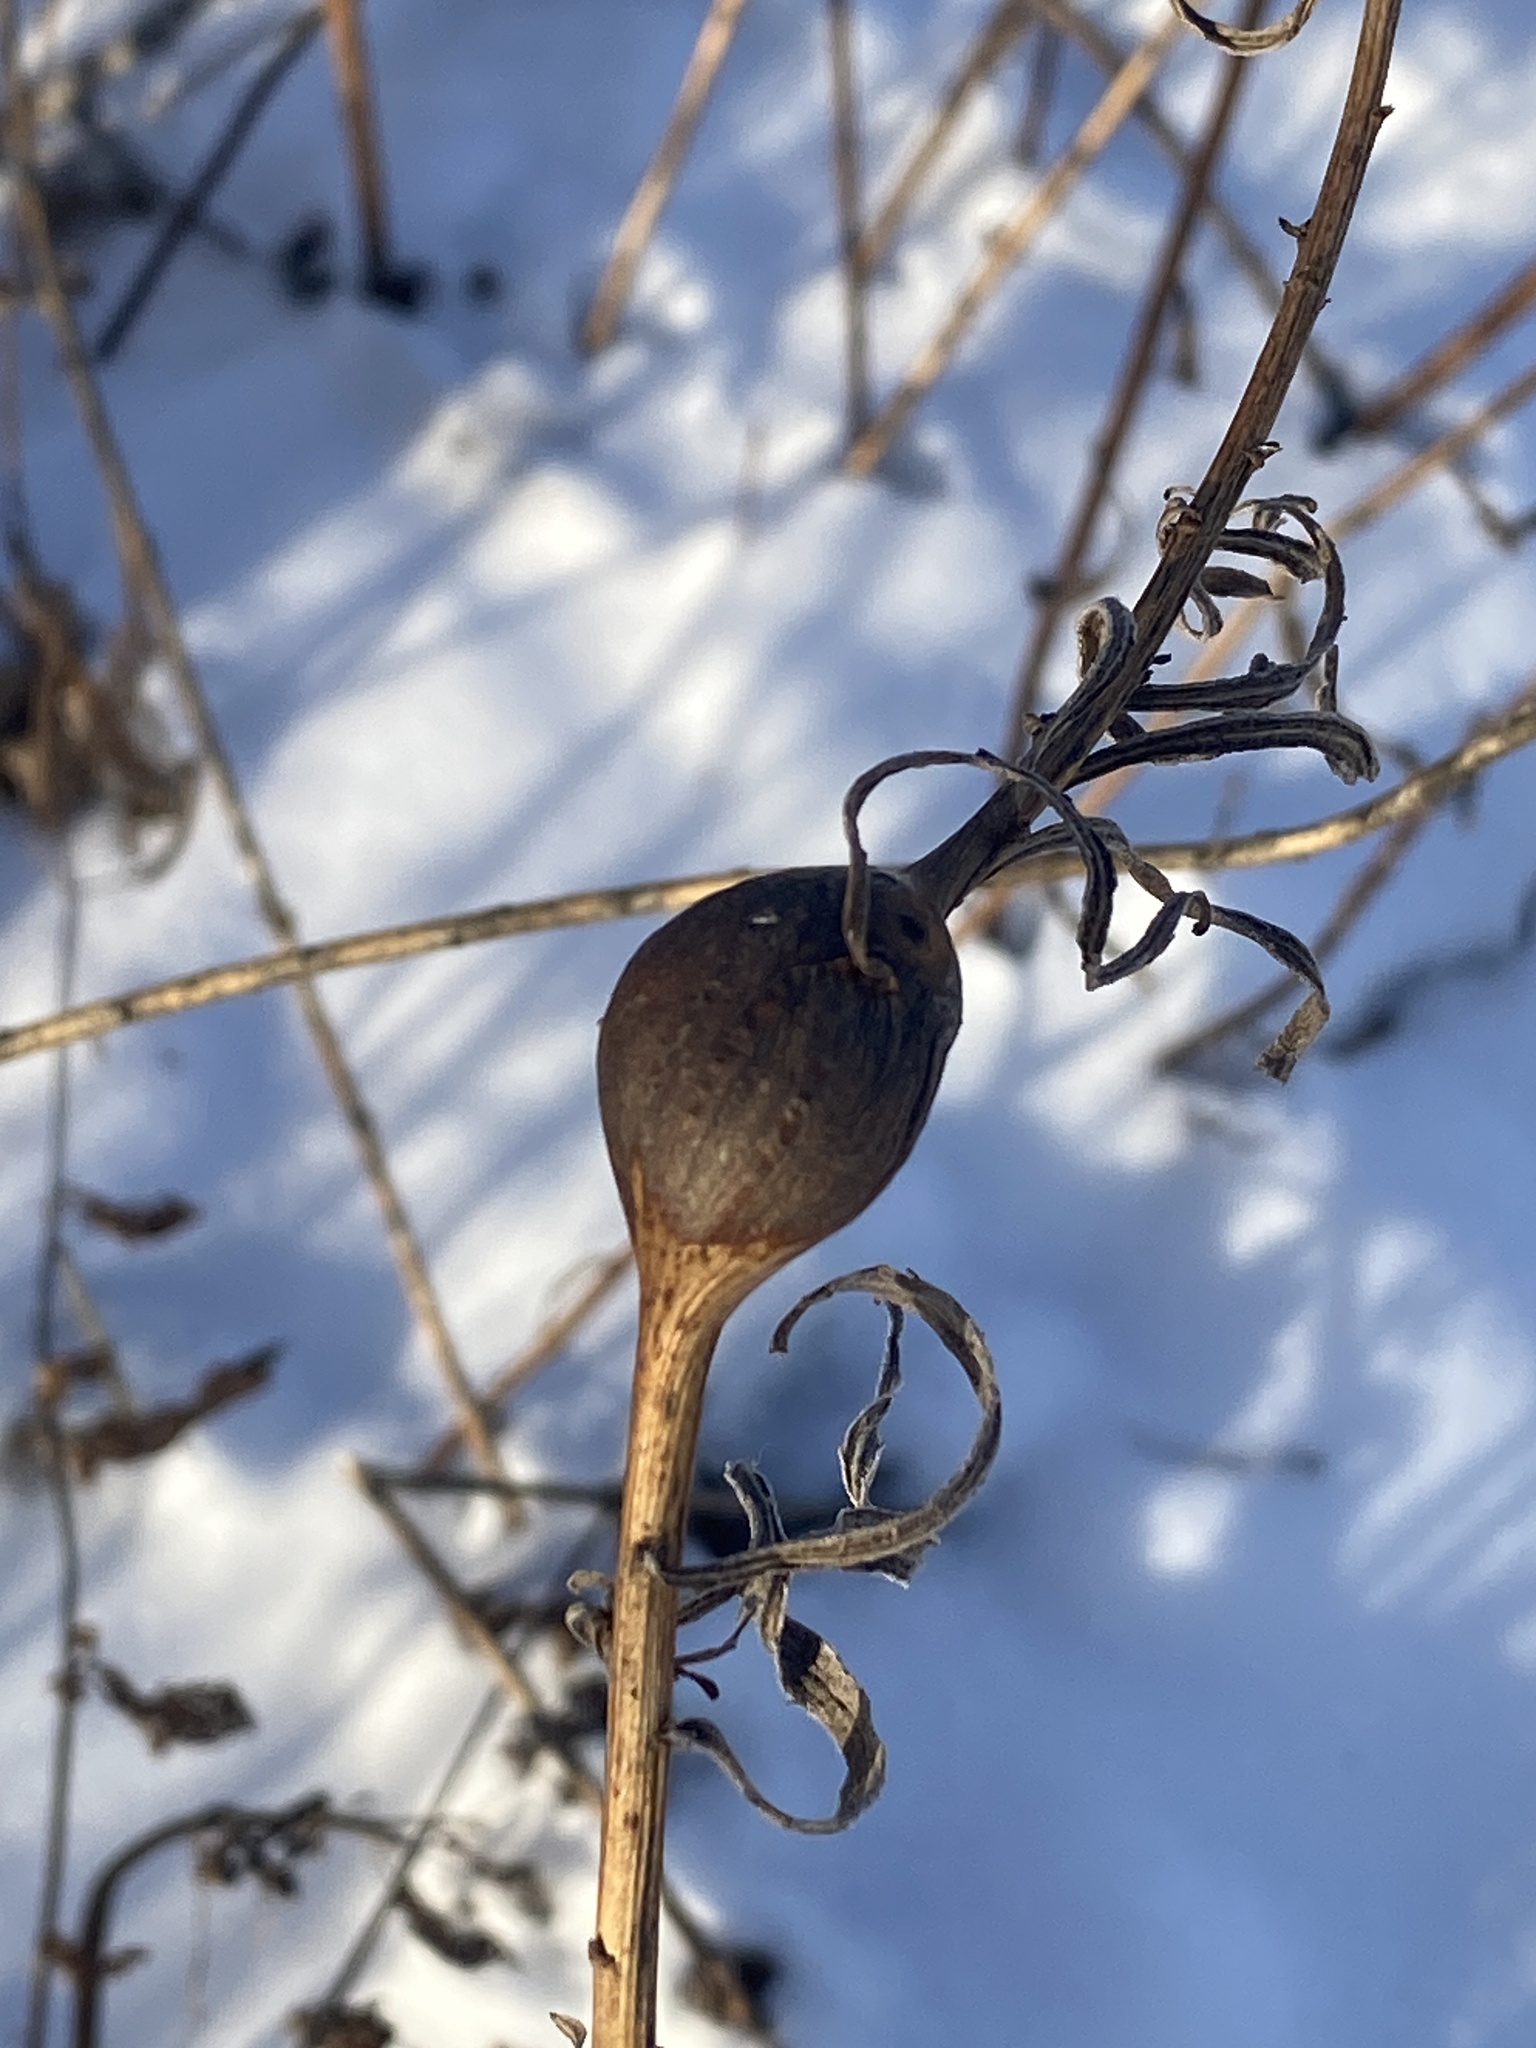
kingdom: Animalia
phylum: Arthropoda
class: Insecta
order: Diptera
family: Tephritidae
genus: Eurosta
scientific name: Eurosta solidaginis
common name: Goldenrod gall fly
